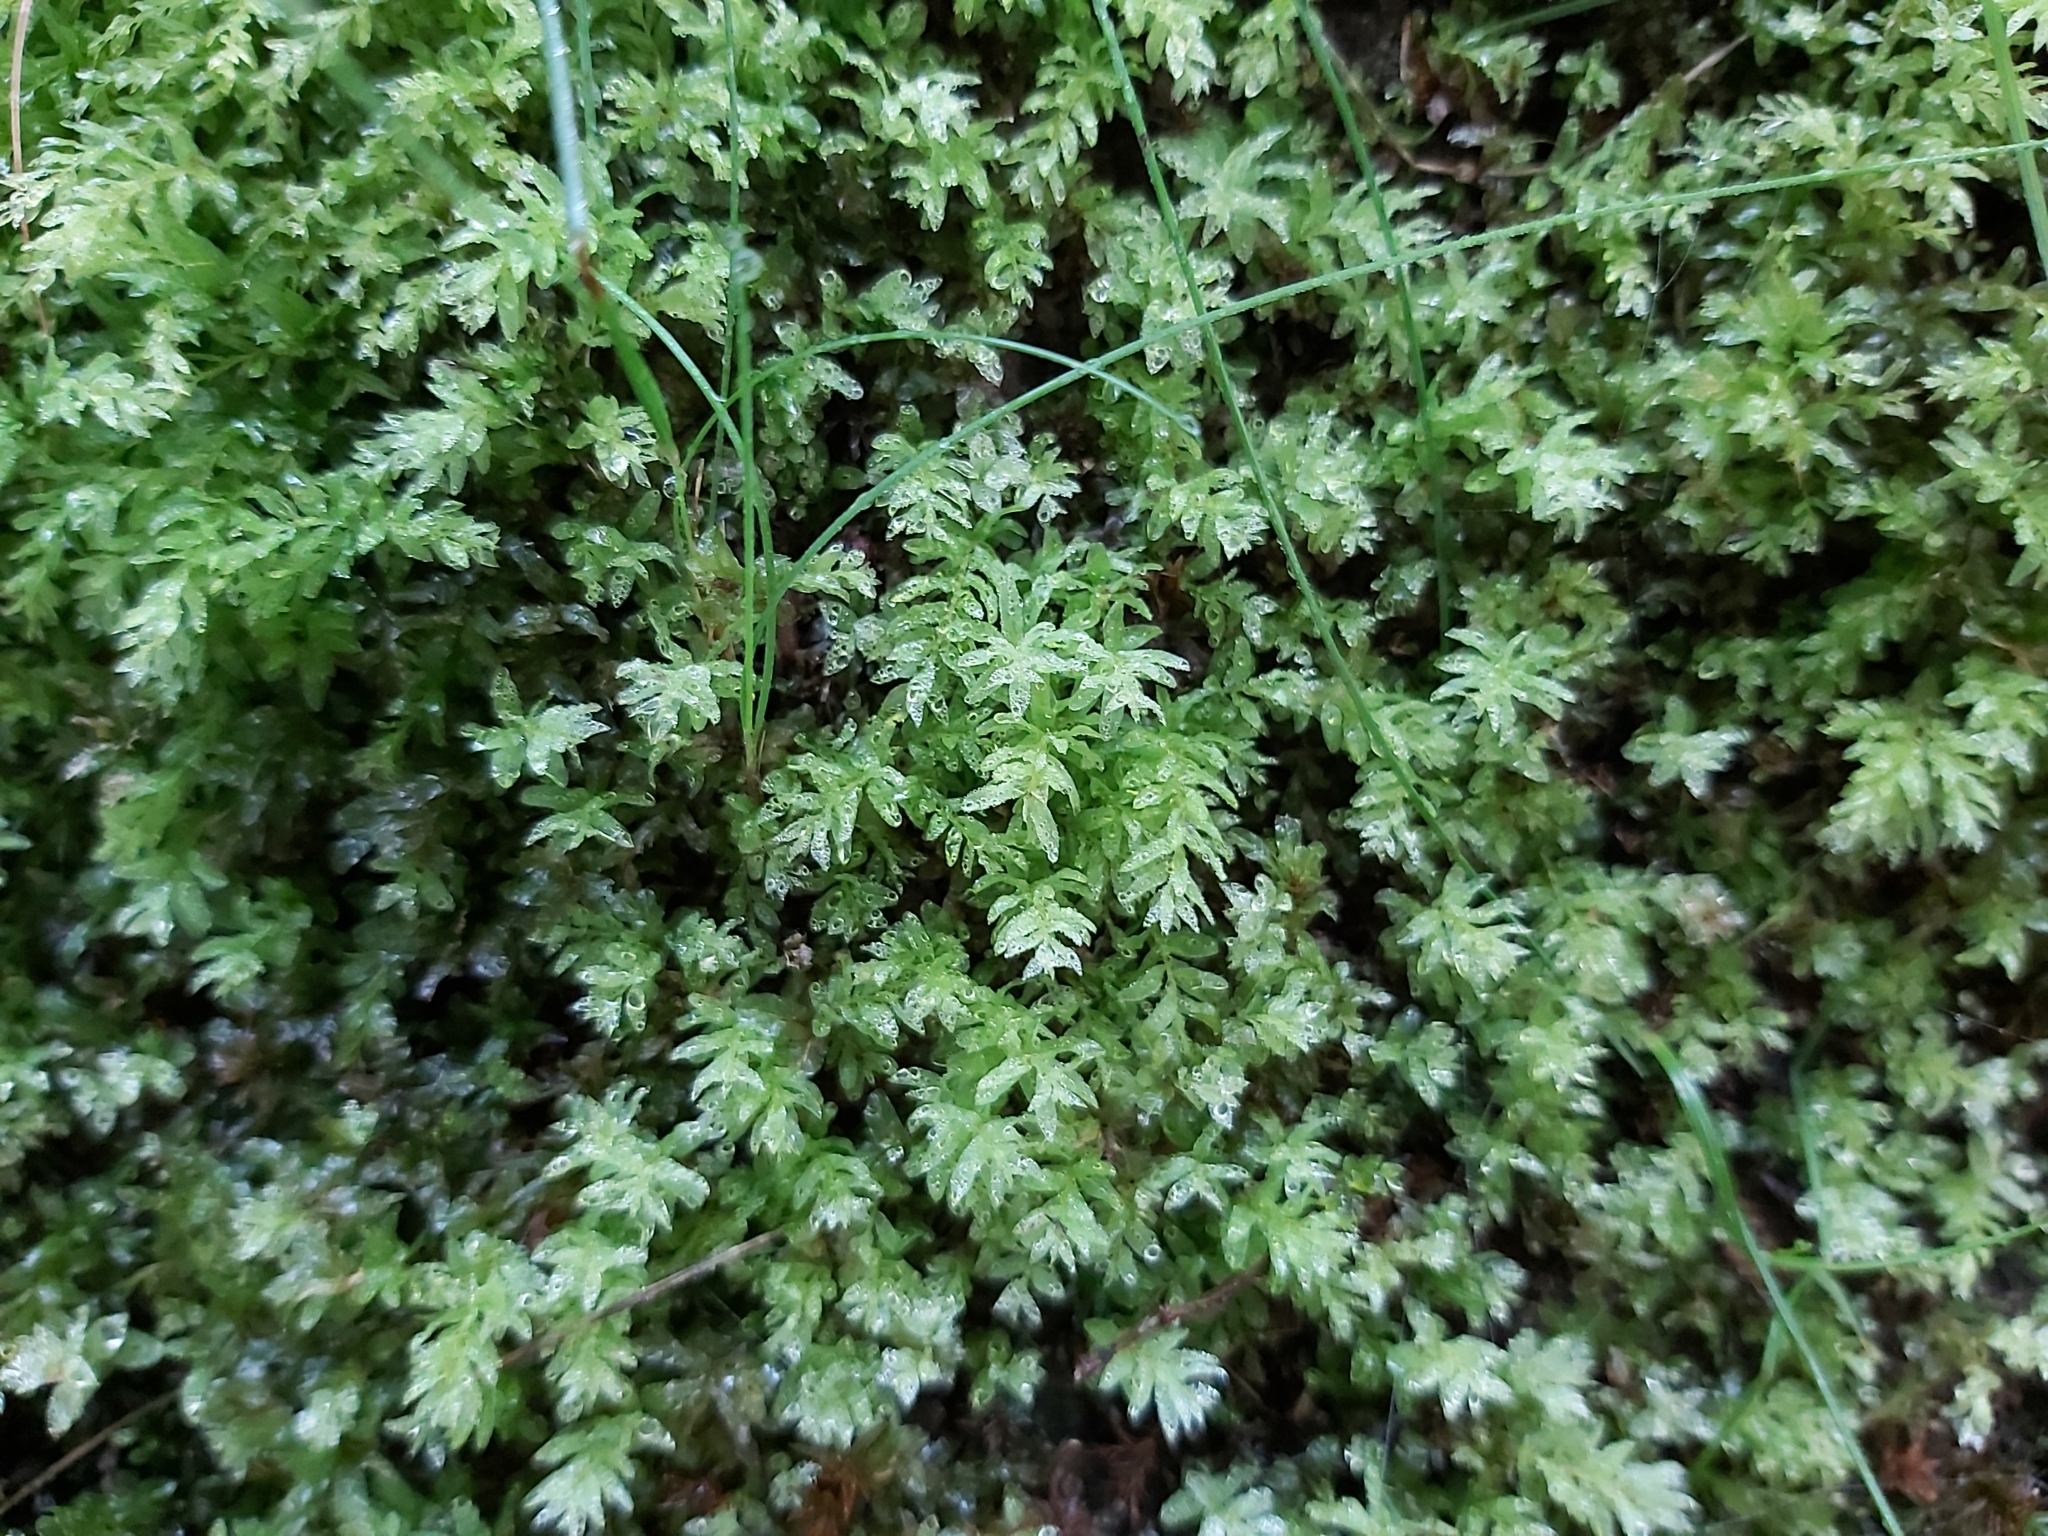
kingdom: Plantae
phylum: Bryophyta
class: Bryopsida
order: Bryales
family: Mniaceae
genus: Plagiomnium
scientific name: Plagiomnium undulatum
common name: Hart's-tongue thyme-moss
